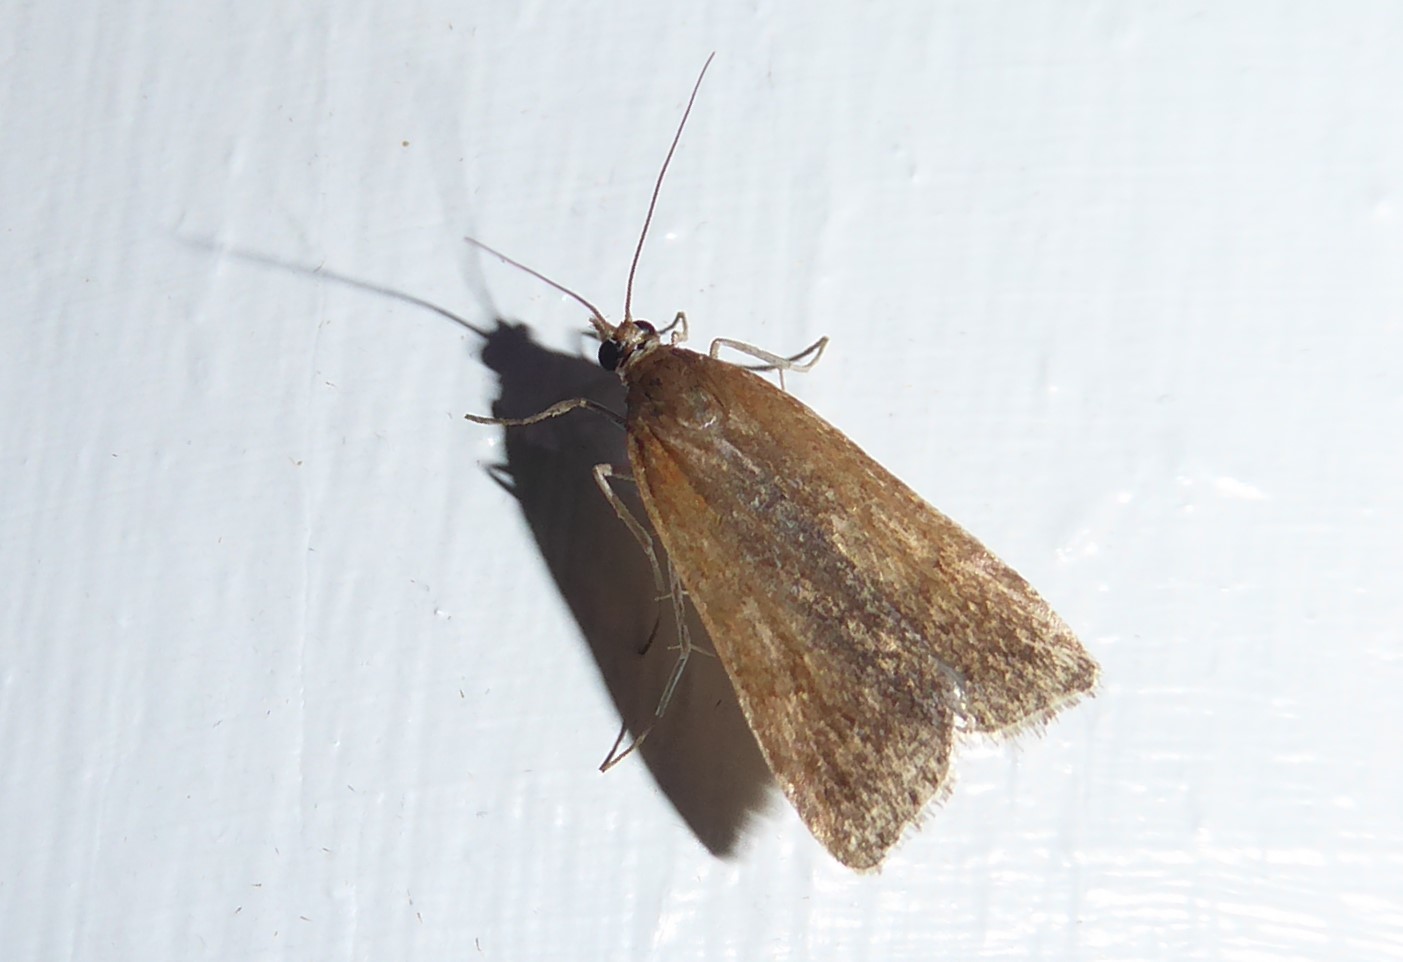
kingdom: Animalia
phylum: Arthropoda
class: Insecta
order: Lepidoptera
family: Crambidae
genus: Eudonia
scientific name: Eudonia feredayi
